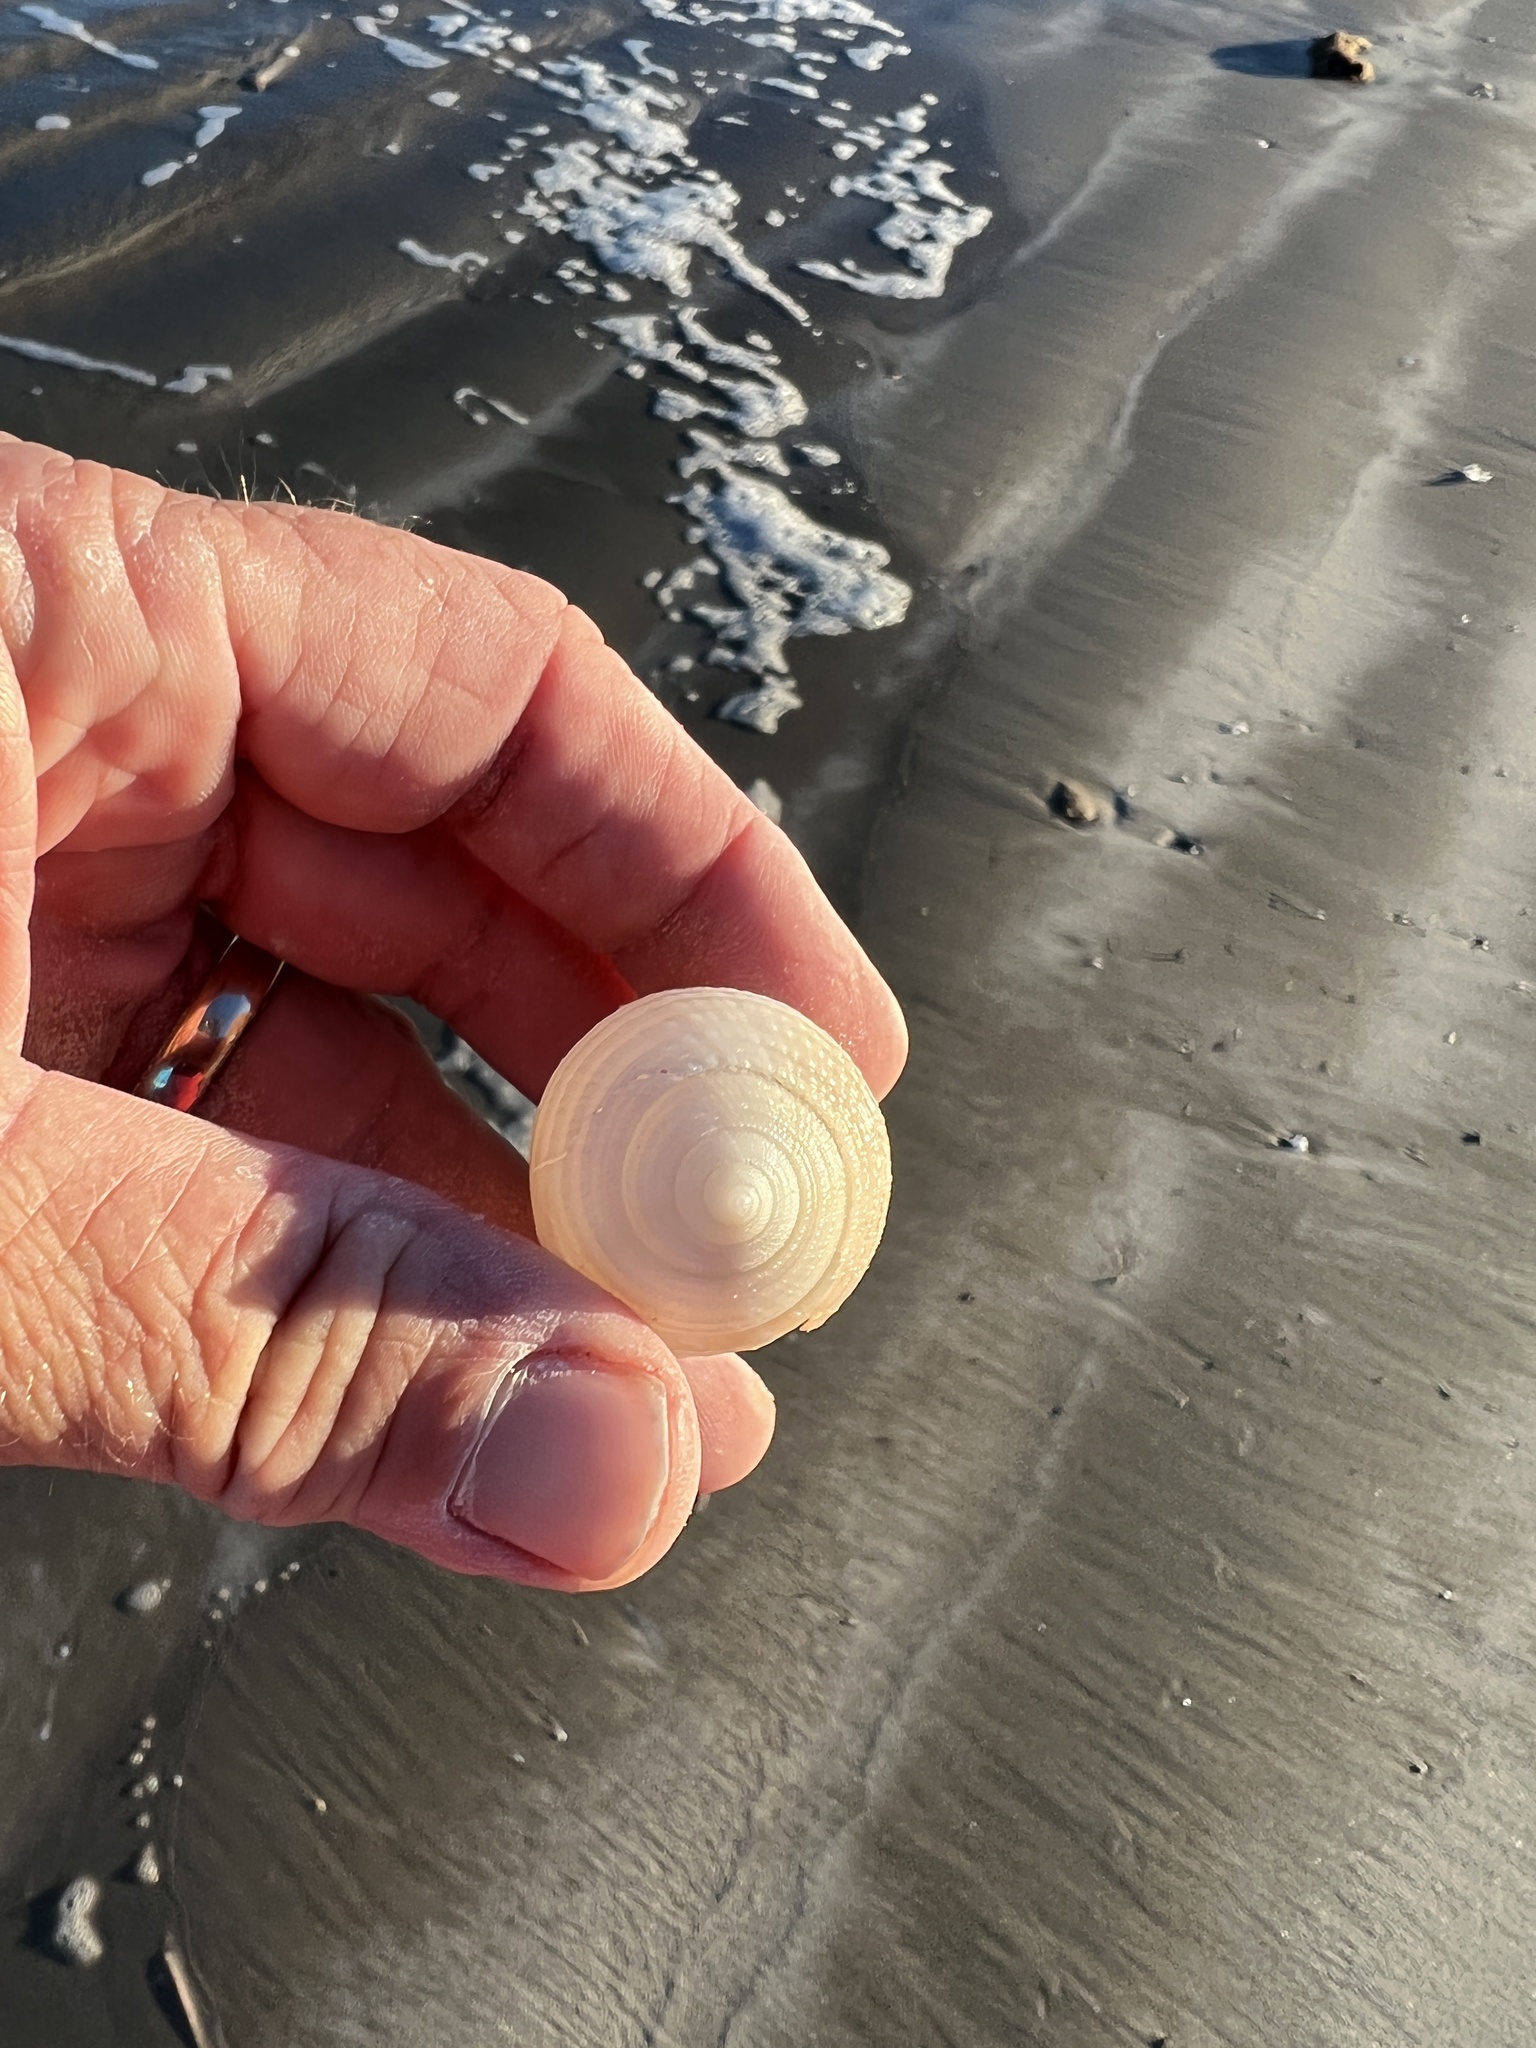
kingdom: Animalia
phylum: Mollusca
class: Gastropoda
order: Littorinimorpha
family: Cassidae
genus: Semicassis
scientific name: Semicassis granulata
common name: Scotch bonnet
